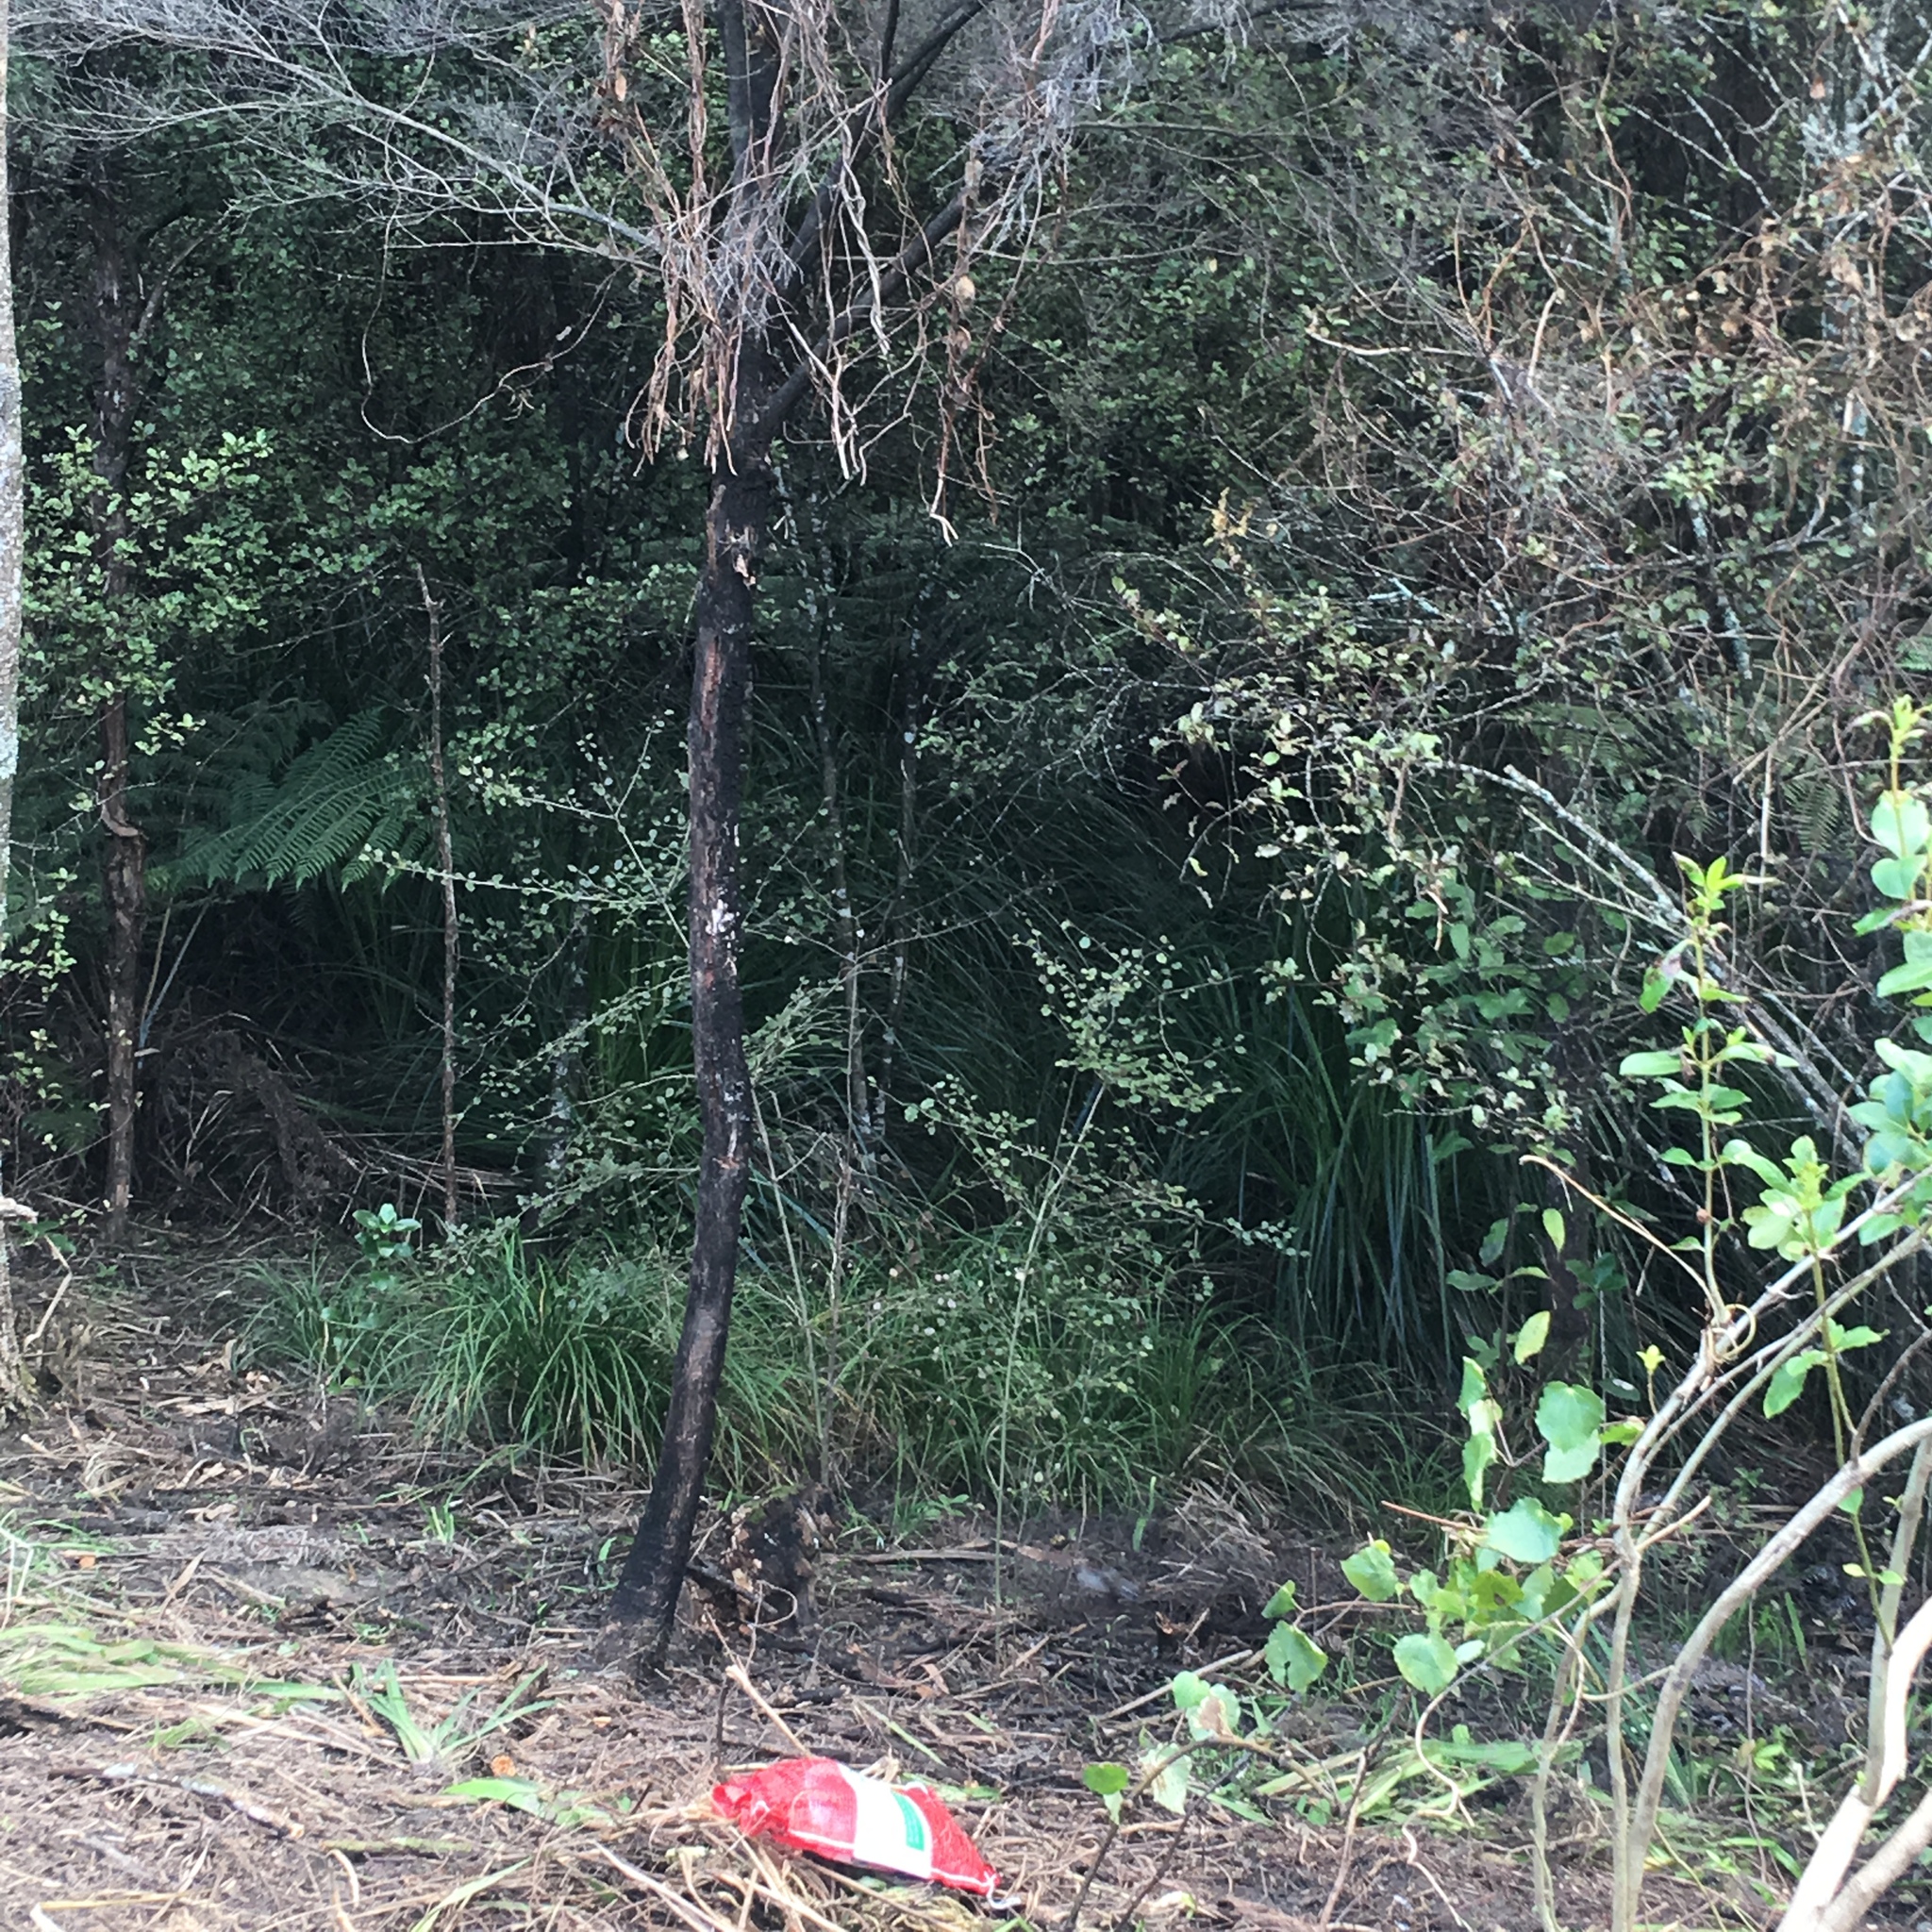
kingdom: Plantae
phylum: Tracheophyta
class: Magnoliopsida
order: Asterales
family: Rousseaceae
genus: Carpodetus
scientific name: Carpodetus serratus
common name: White mapau
